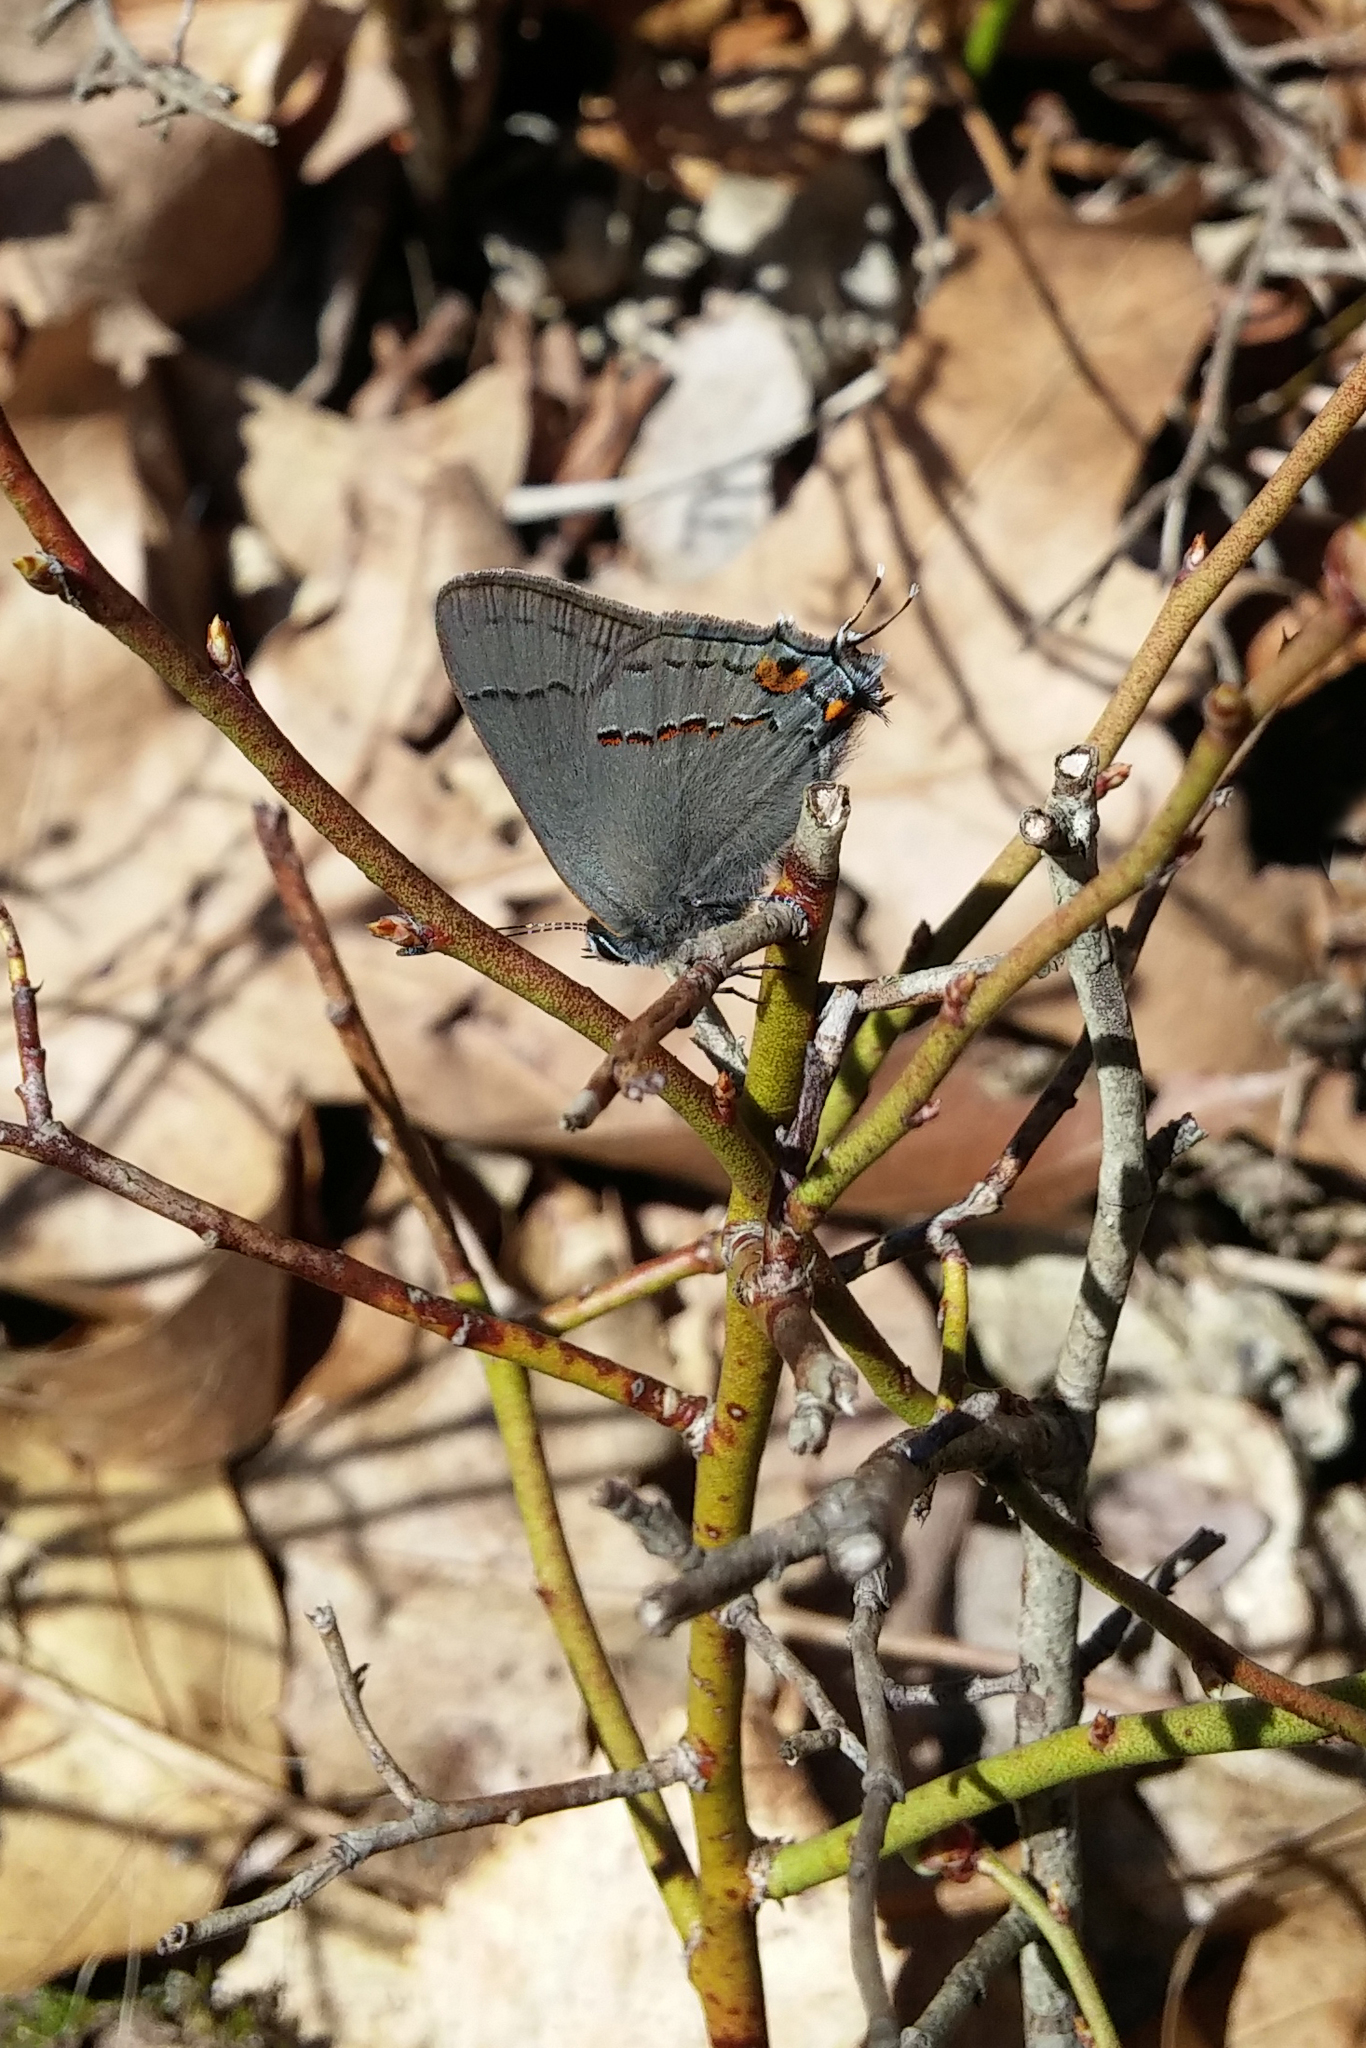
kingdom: Animalia
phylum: Arthropoda
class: Insecta
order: Lepidoptera
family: Lycaenidae
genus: Strymon
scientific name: Strymon melinus
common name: Gray hairstreak
